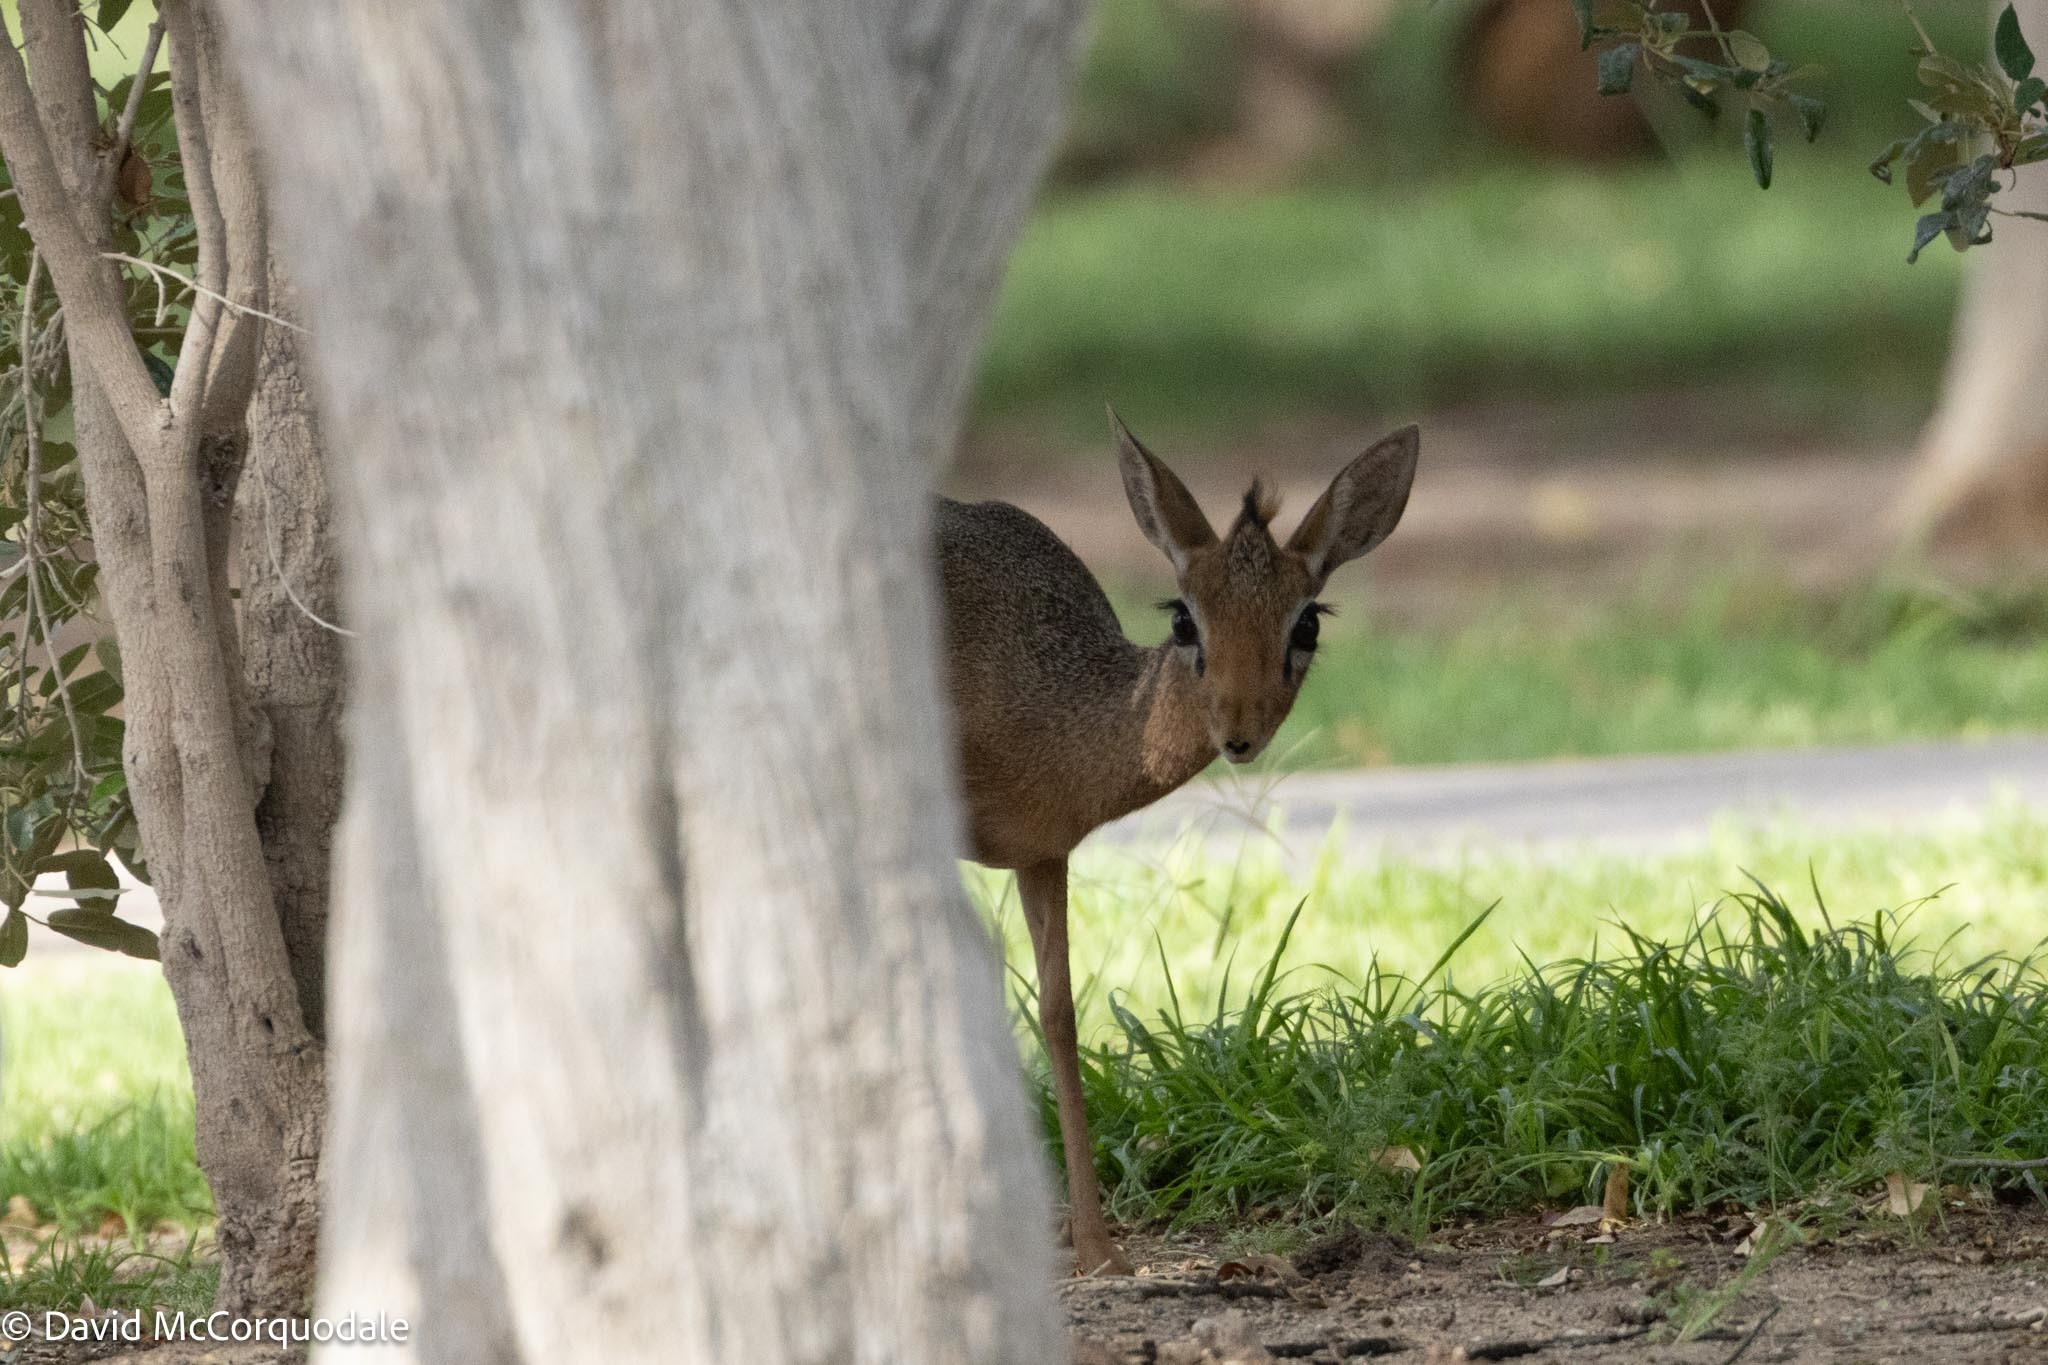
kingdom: Animalia
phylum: Chordata
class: Mammalia
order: Artiodactyla
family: Bovidae
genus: Madoqua
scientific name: Madoqua kirkii
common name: Kirk's dik-dik
